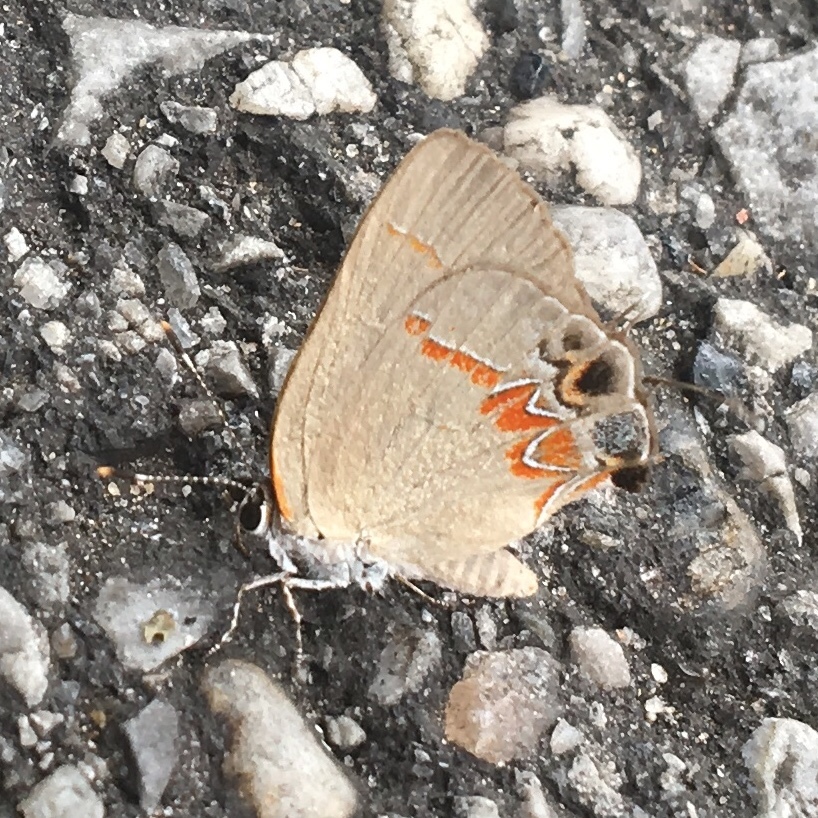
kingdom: Animalia
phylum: Arthropoda
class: Insecta
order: Lepidoptera
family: Lycaenidae
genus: Calycopis
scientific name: Calycopis cecrops
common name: Red-banded hairstreak
